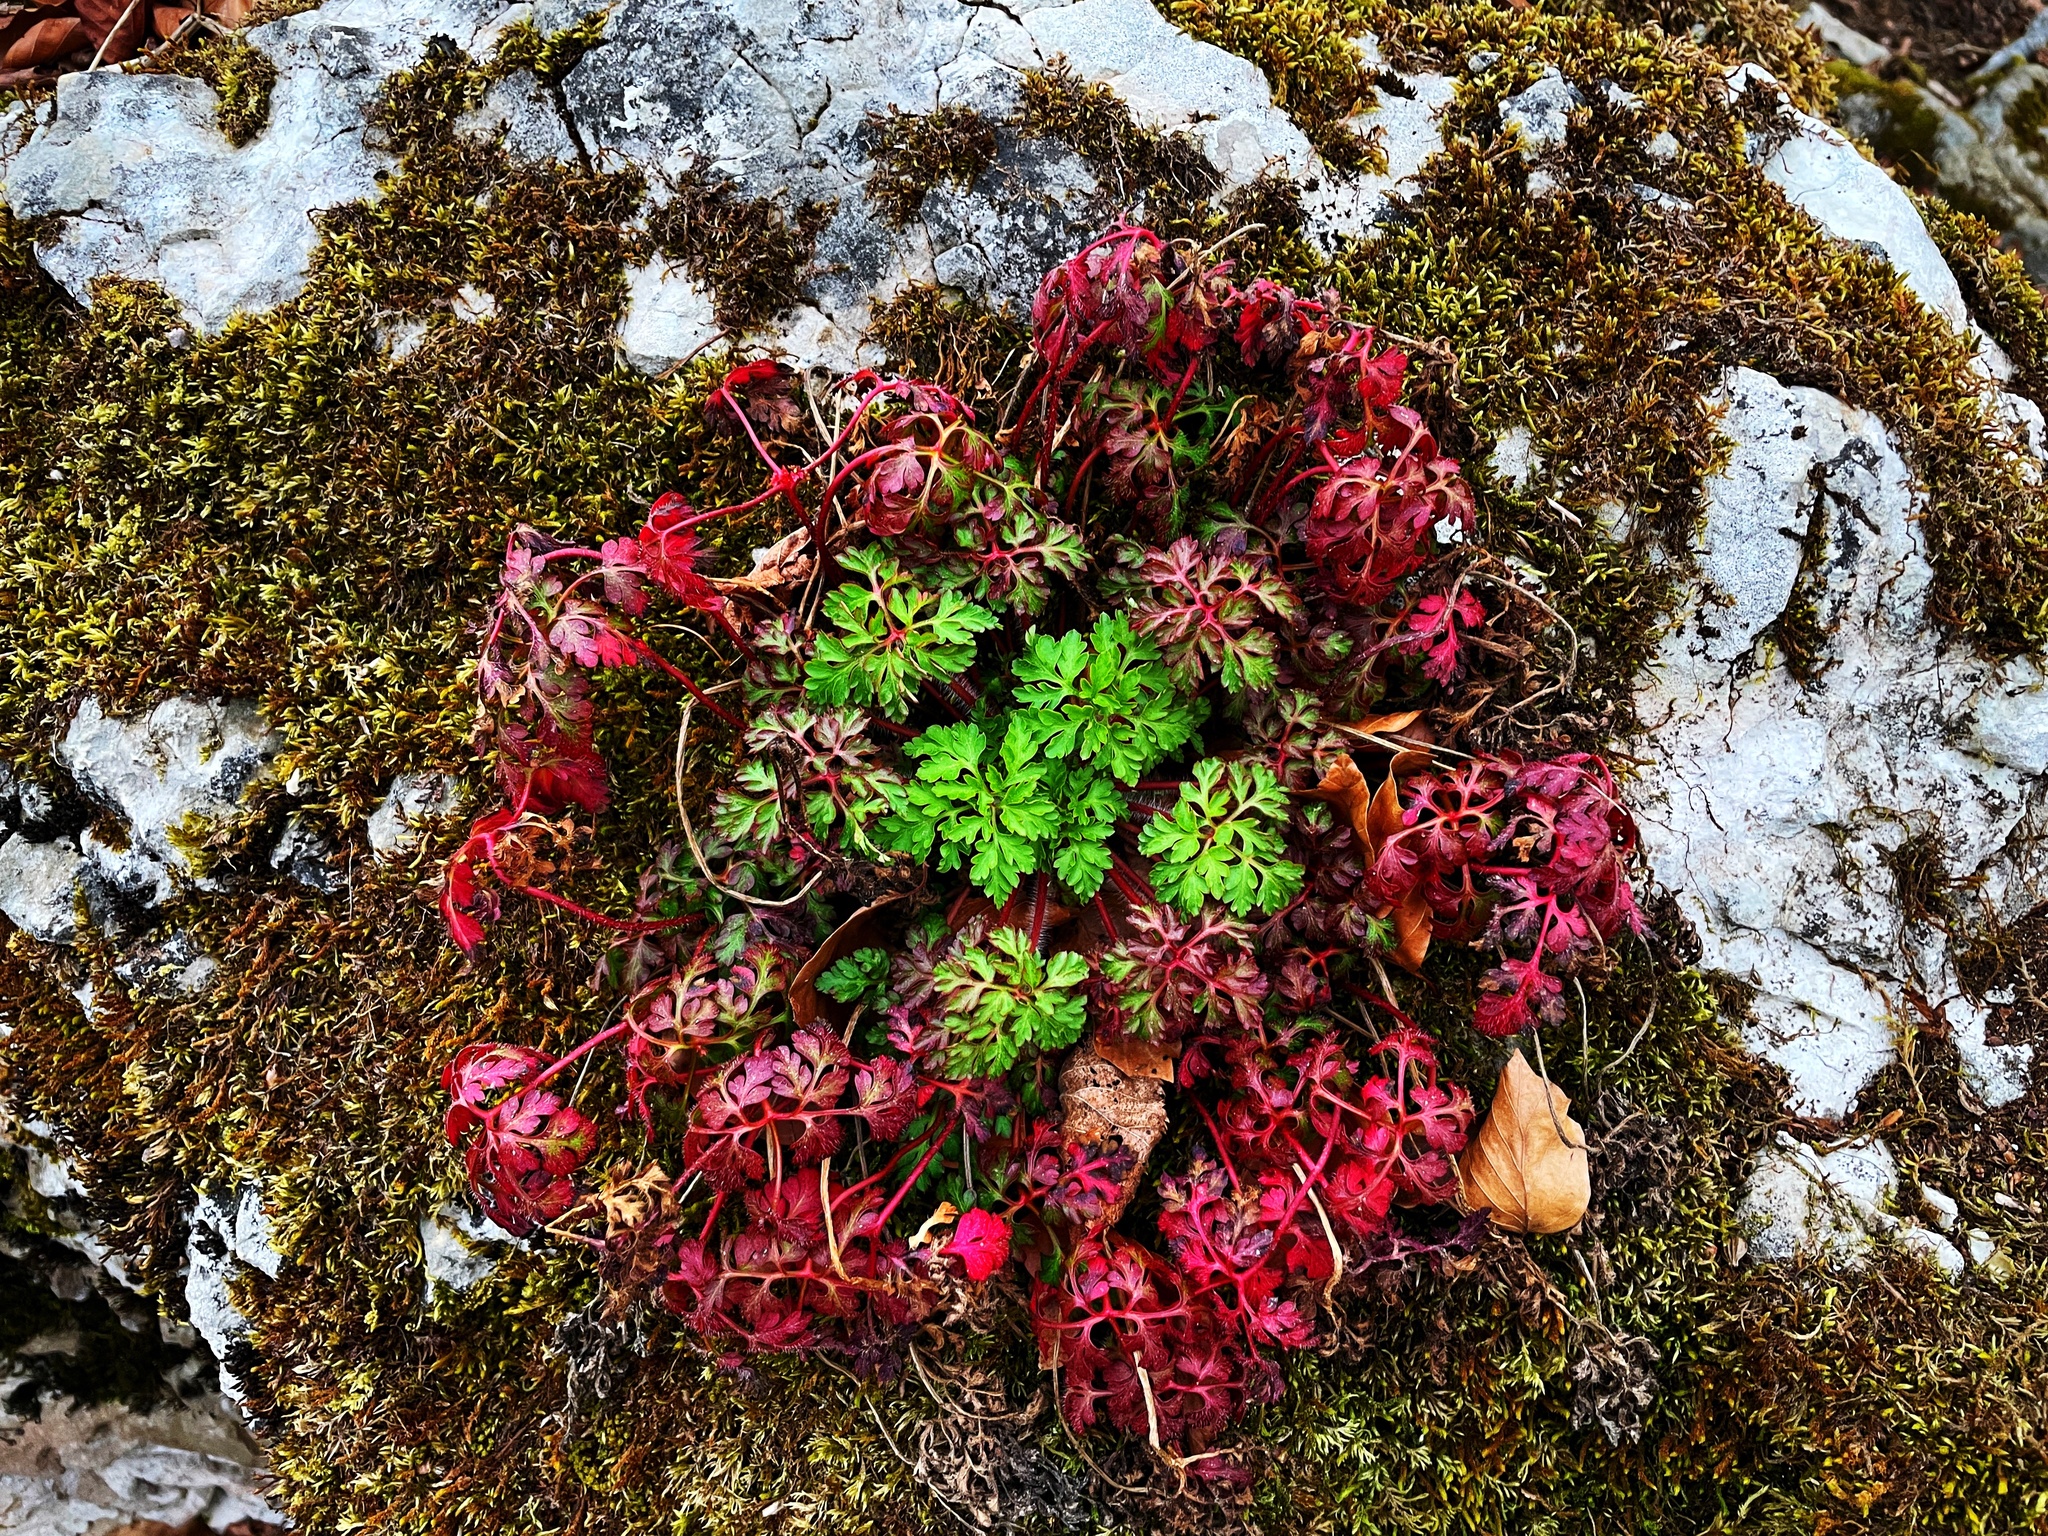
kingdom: Plantae
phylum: Tracheophyta
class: Magnoliopsida
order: Geraniales
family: Geraniaceae
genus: Geranium
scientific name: Geranium robertianum
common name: Herb-robert
